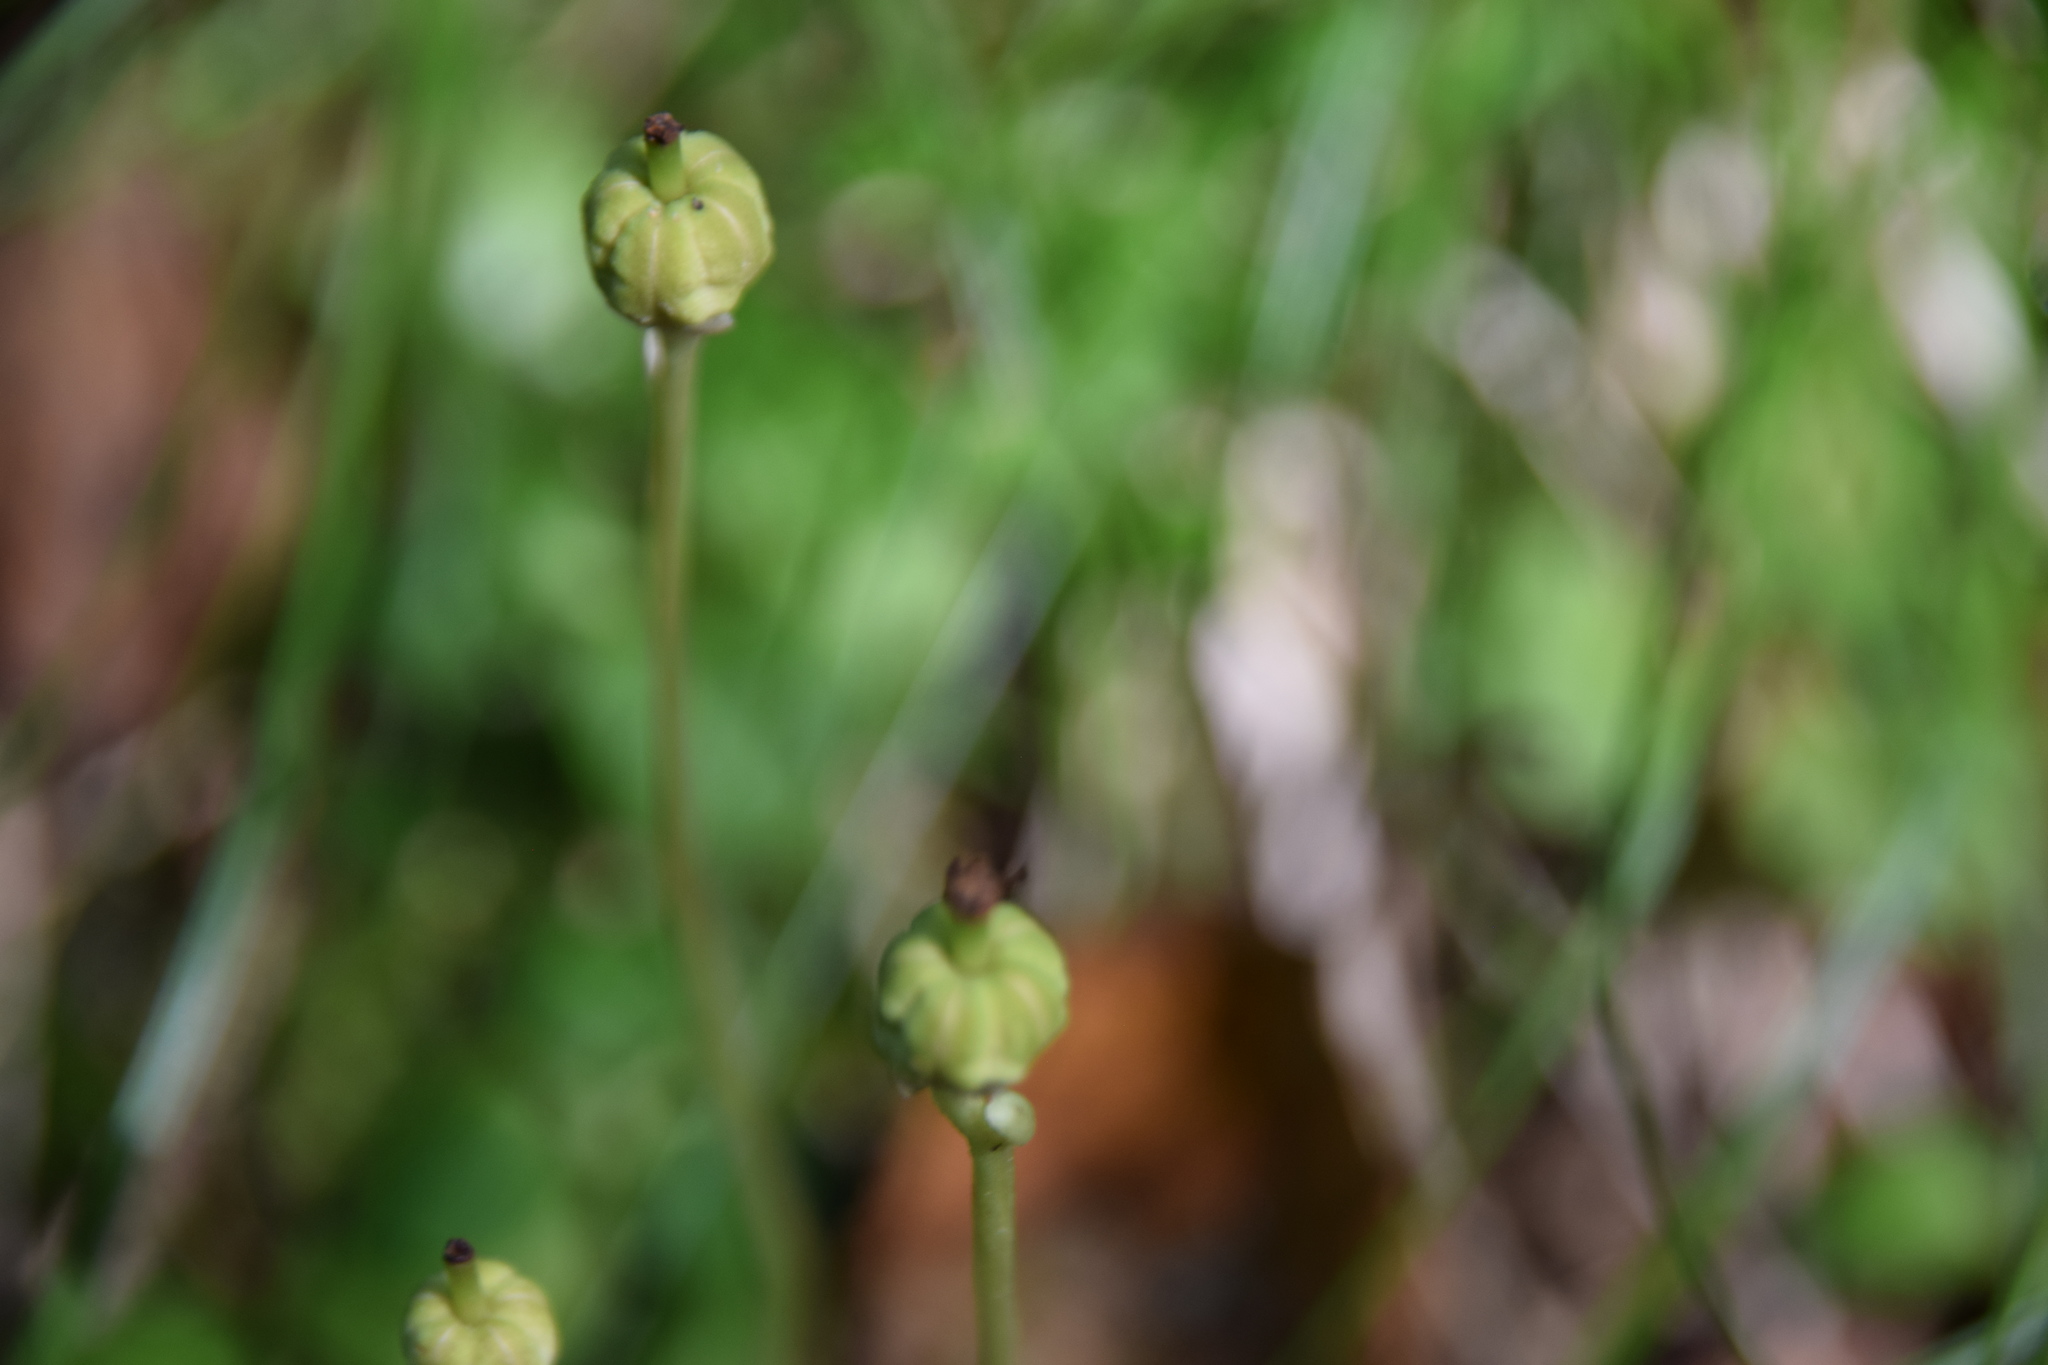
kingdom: Plantae
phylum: Tracheophyta
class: Magnoliopsida
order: Ericales
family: Ericaceae
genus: Moneses
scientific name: Moneses uniflora
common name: One-flowered wintergreen
